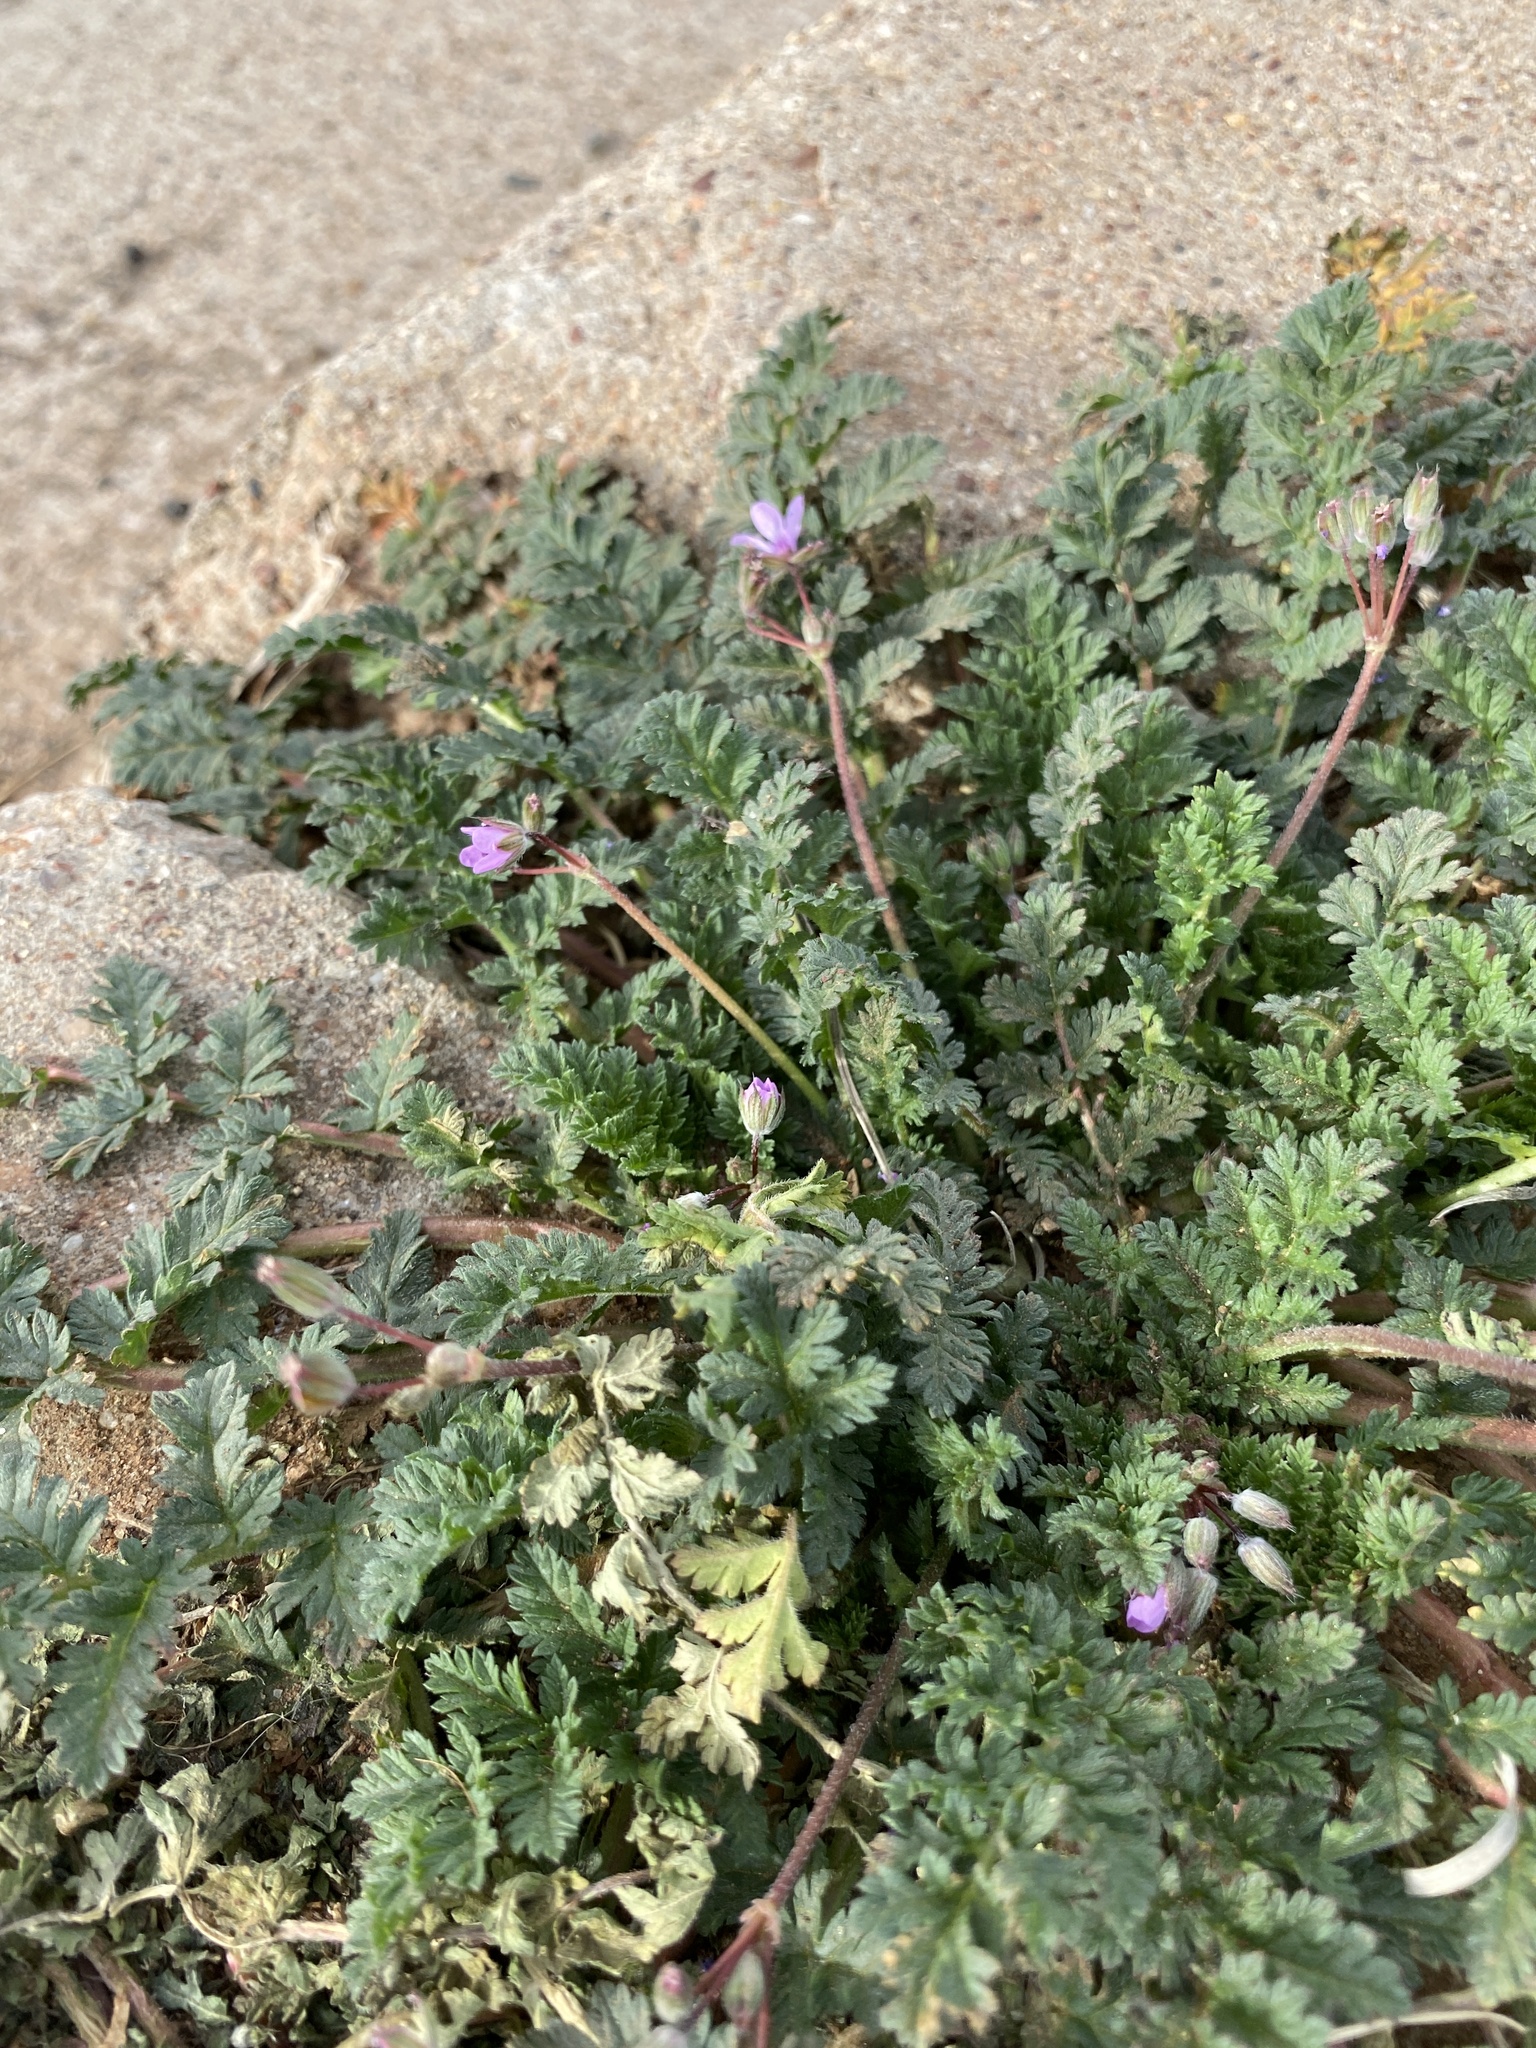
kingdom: Plantae
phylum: Tracheophyta
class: Magnoliopsida
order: Geraniales
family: Geraniaceae
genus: Erodium
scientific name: Erodium cicutarium
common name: Common stork's-bill
